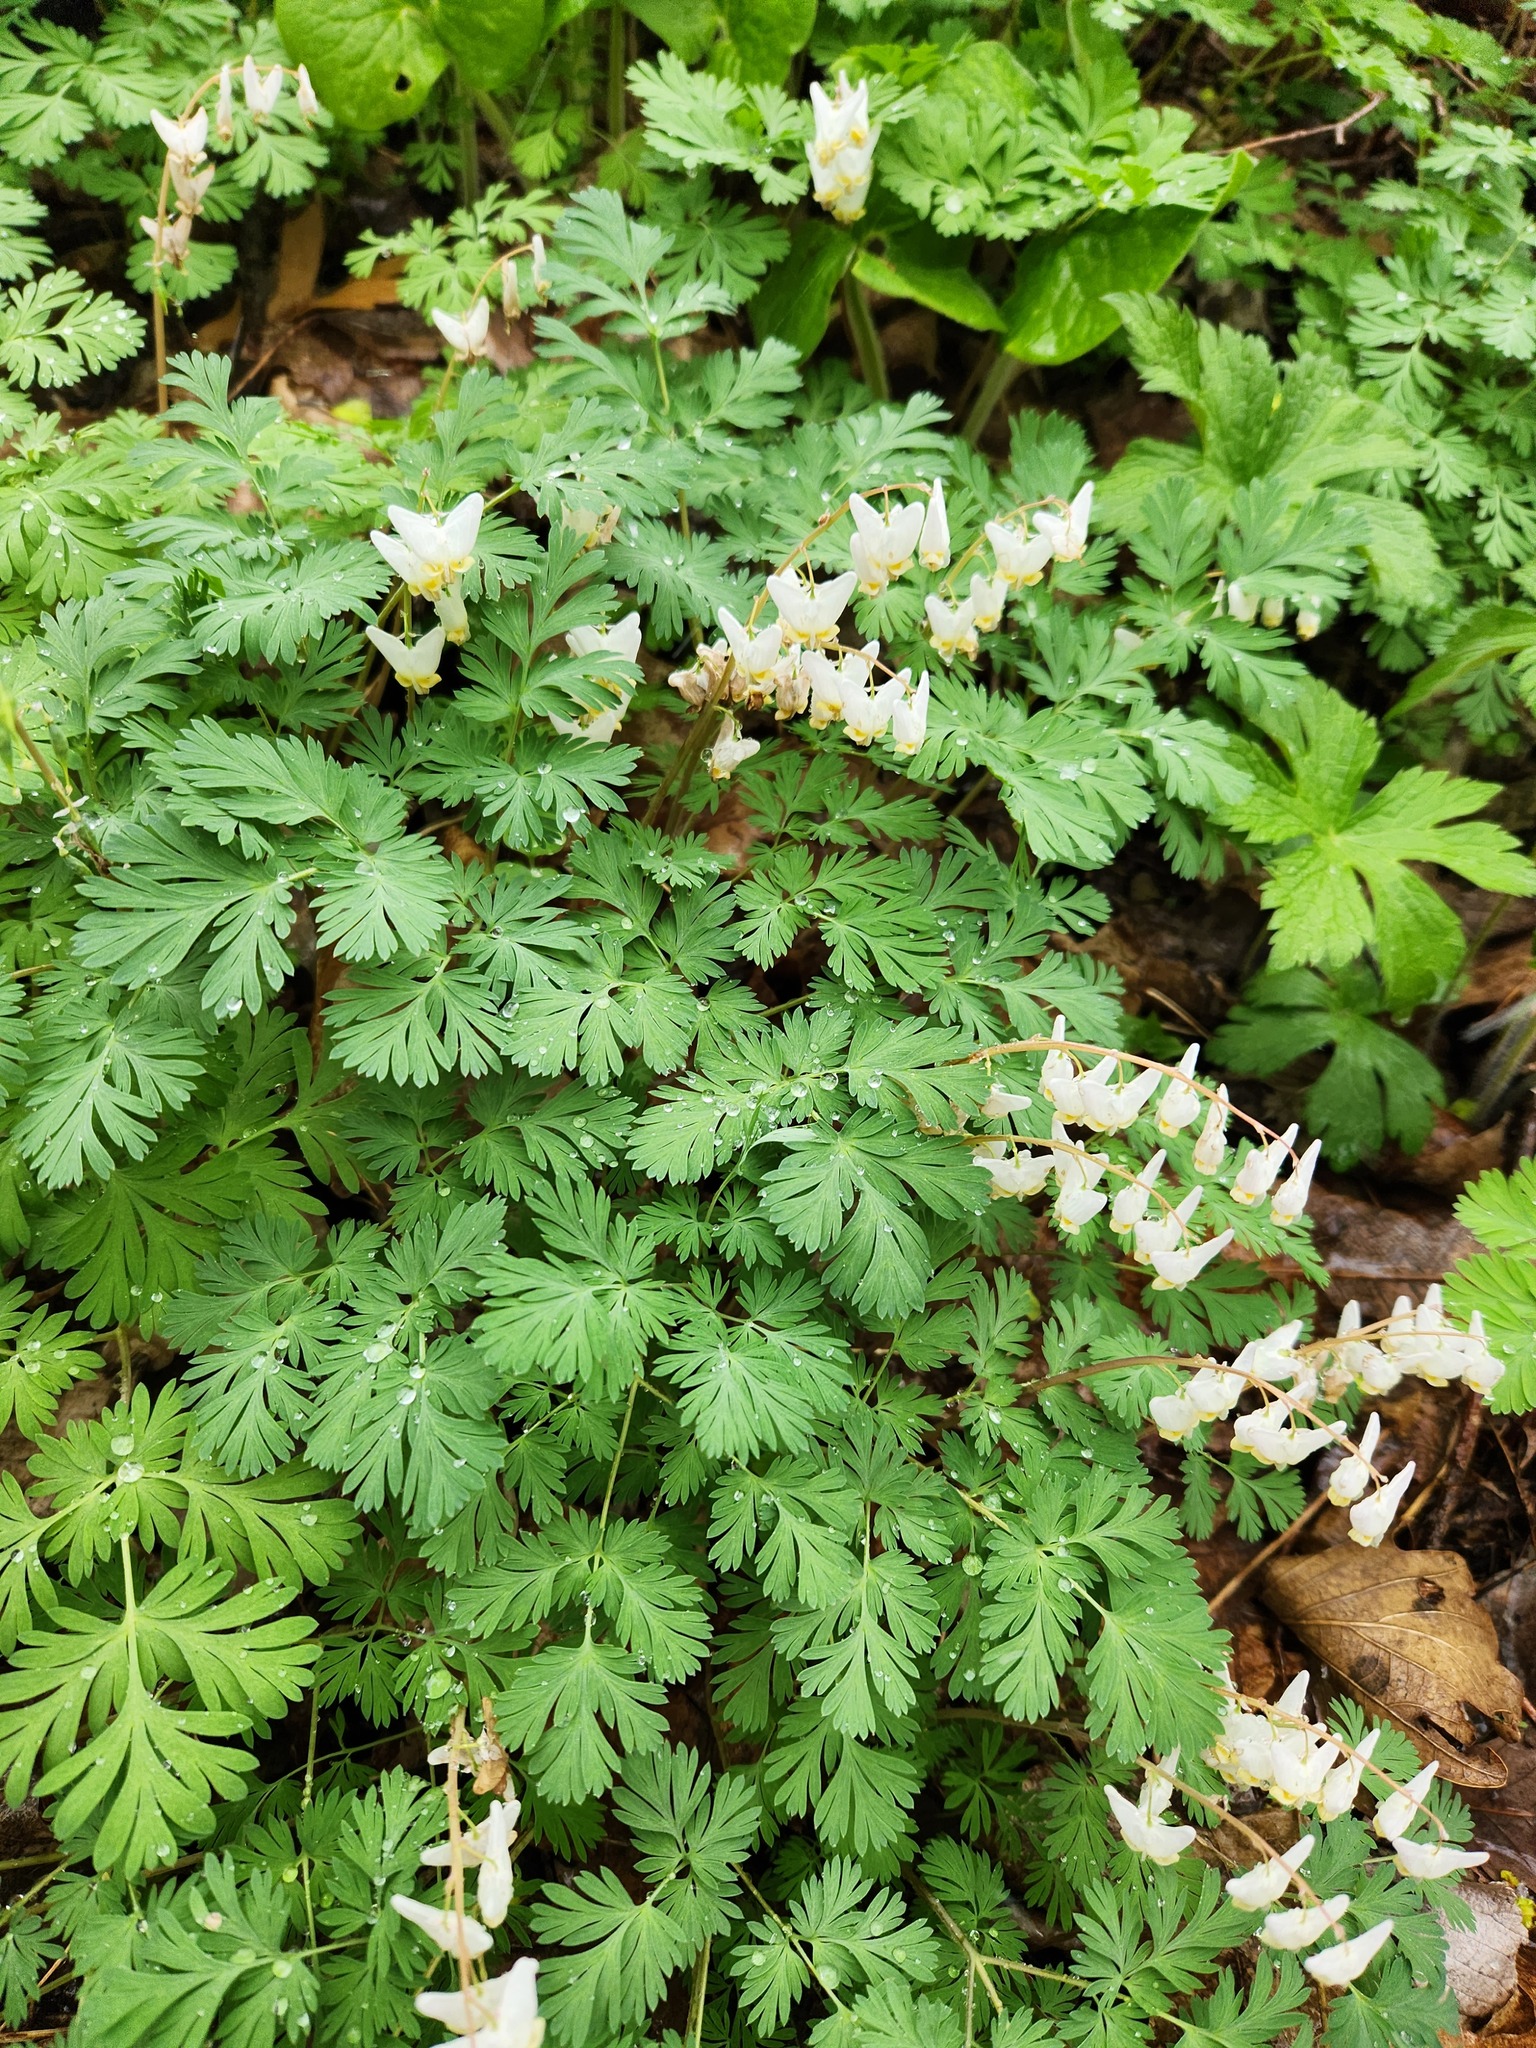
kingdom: Plantae
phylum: Tracheophyta
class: Magnoliopsida
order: Ranunculales
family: Papaveraceae
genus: Dicentra
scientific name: Dicentra cucullaria
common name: Dutchman's breeches
